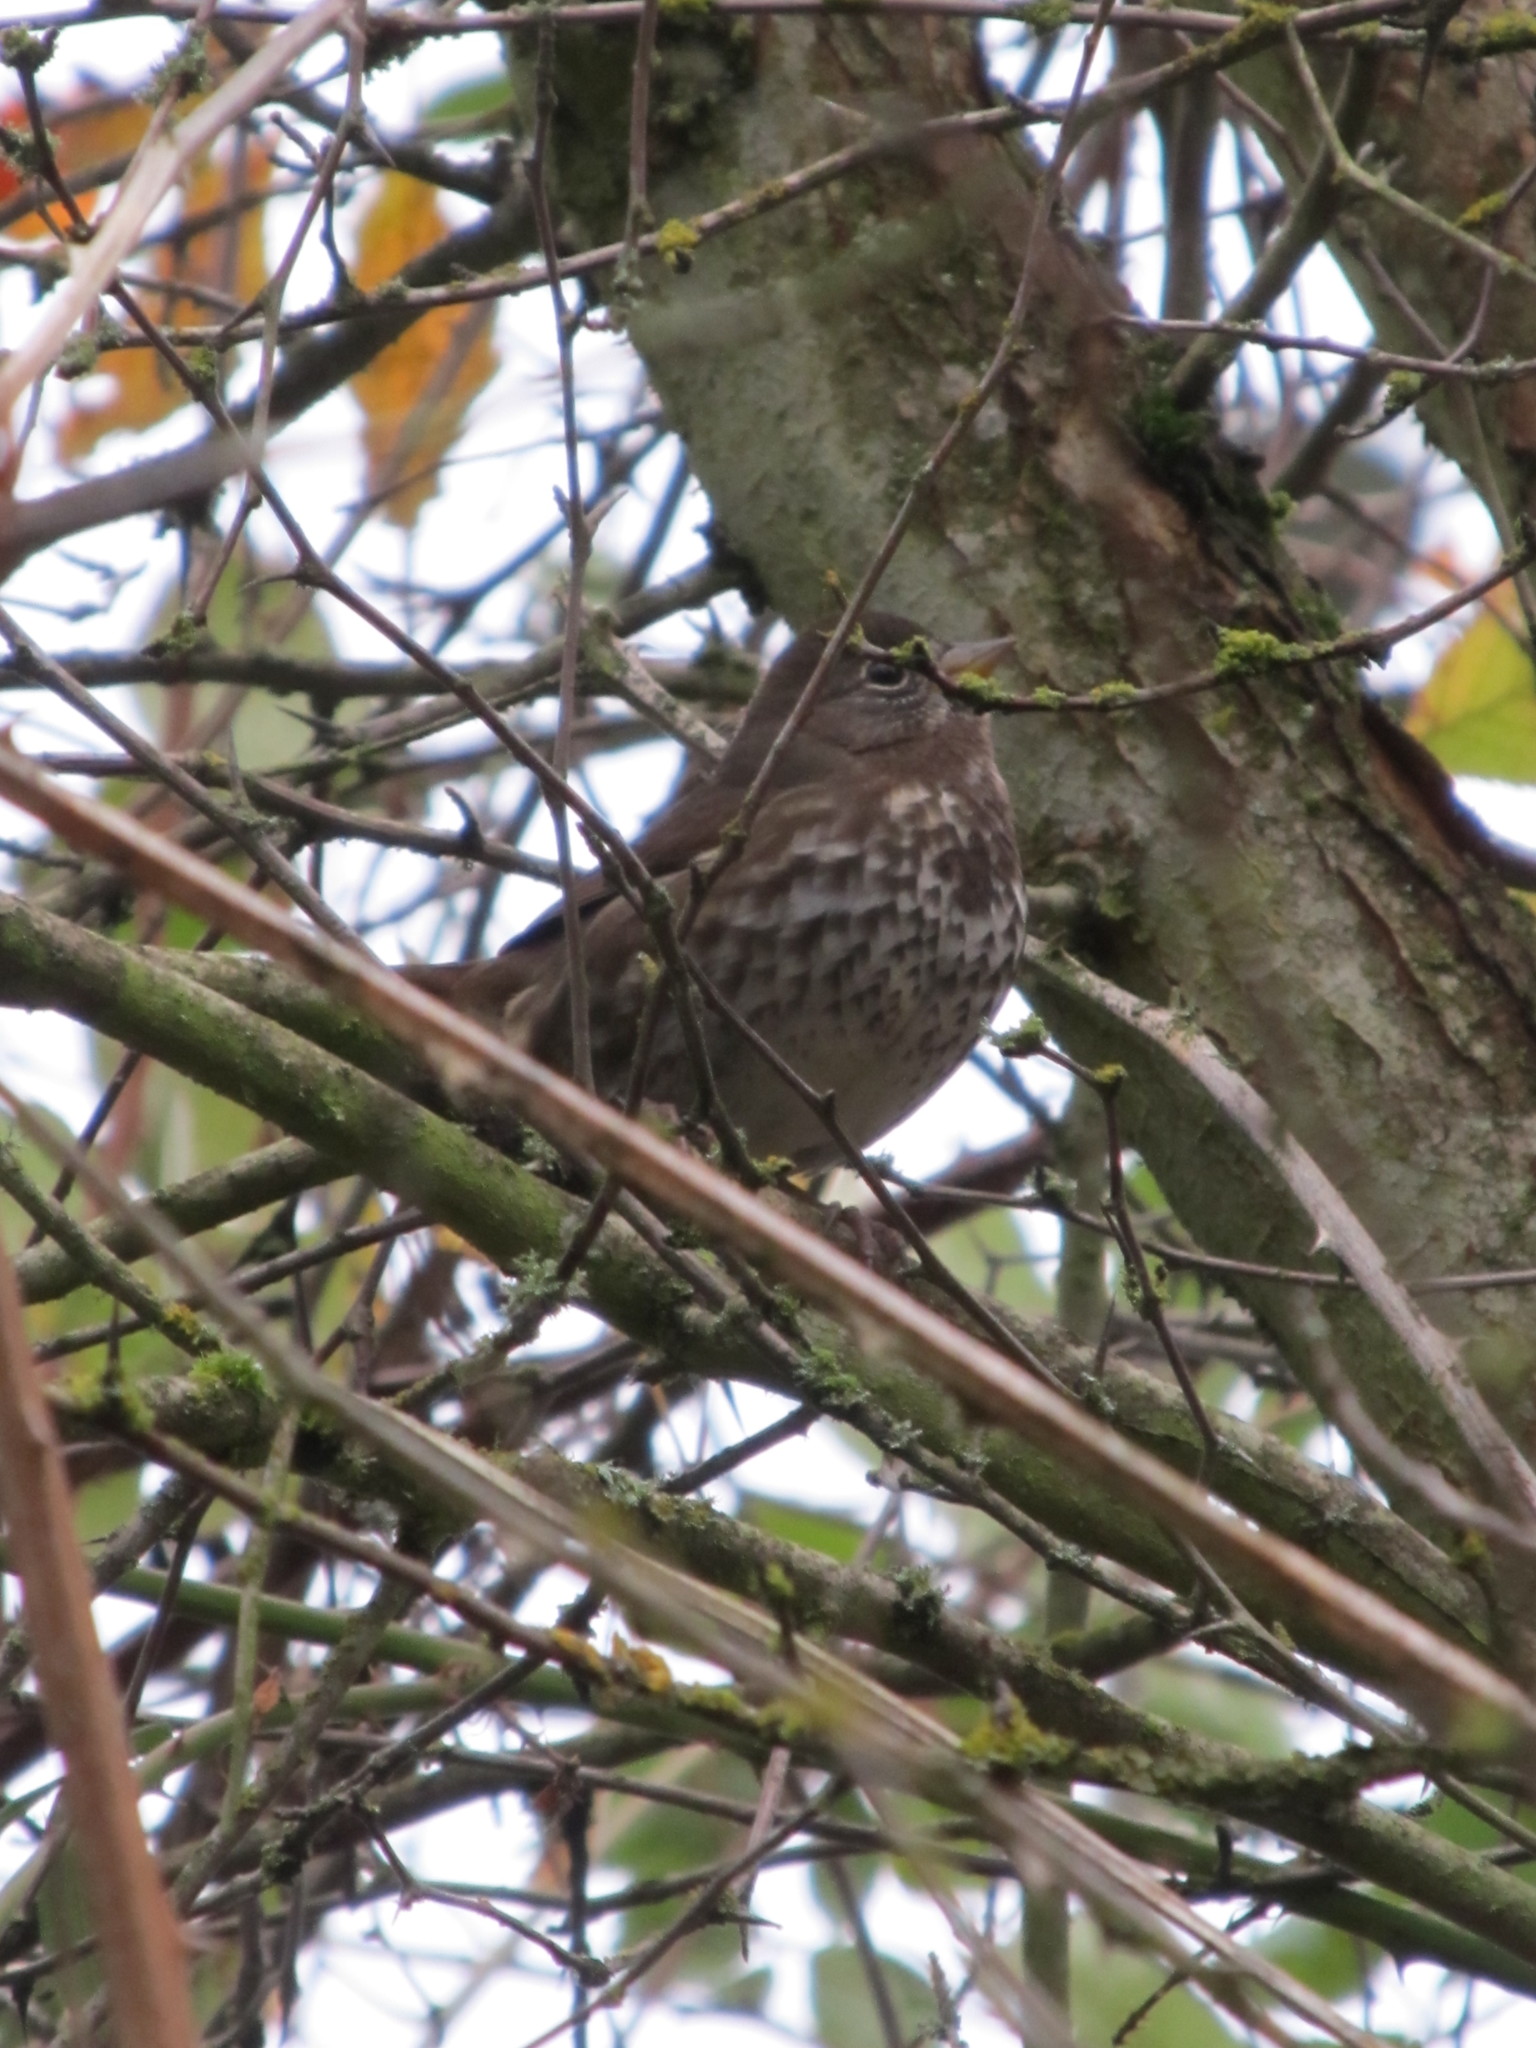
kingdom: Animalia
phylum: Chordata
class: Aves
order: Passeriformes
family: Passerellidae
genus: Passerella
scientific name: Passerella iliaca
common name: Fox sparrow
